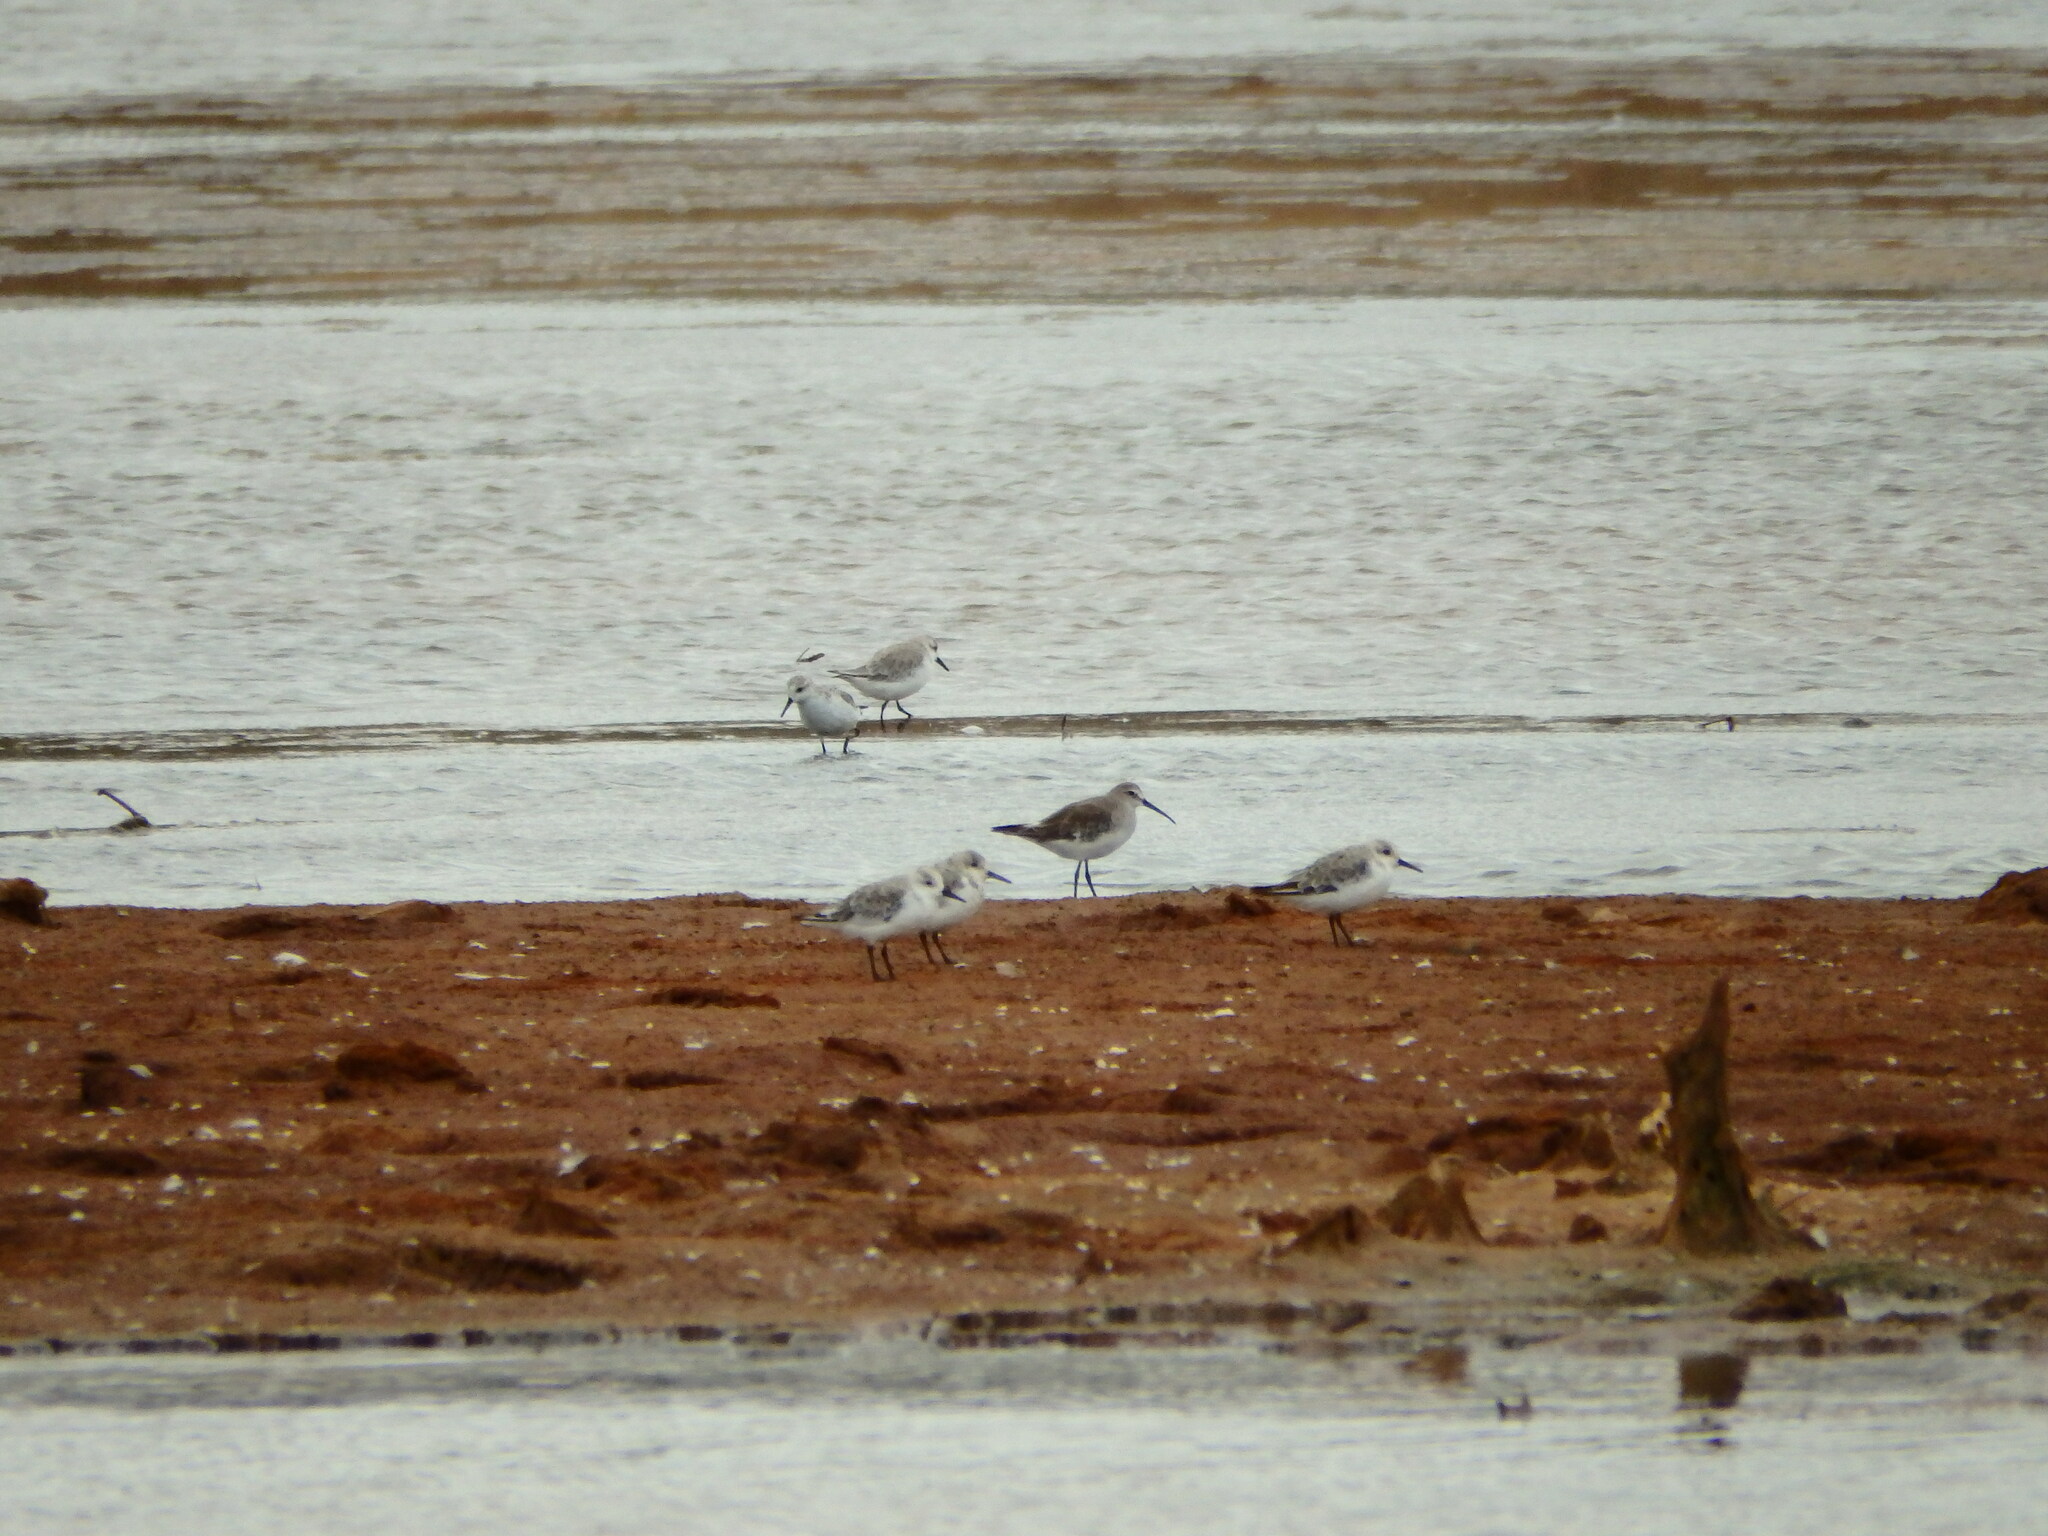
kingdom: Animalia
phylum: Chordata
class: Aves
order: Charadriiformes
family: Scolopacidae
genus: Calidris
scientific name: Calidris ferruginea
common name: Curlew sandpiper
